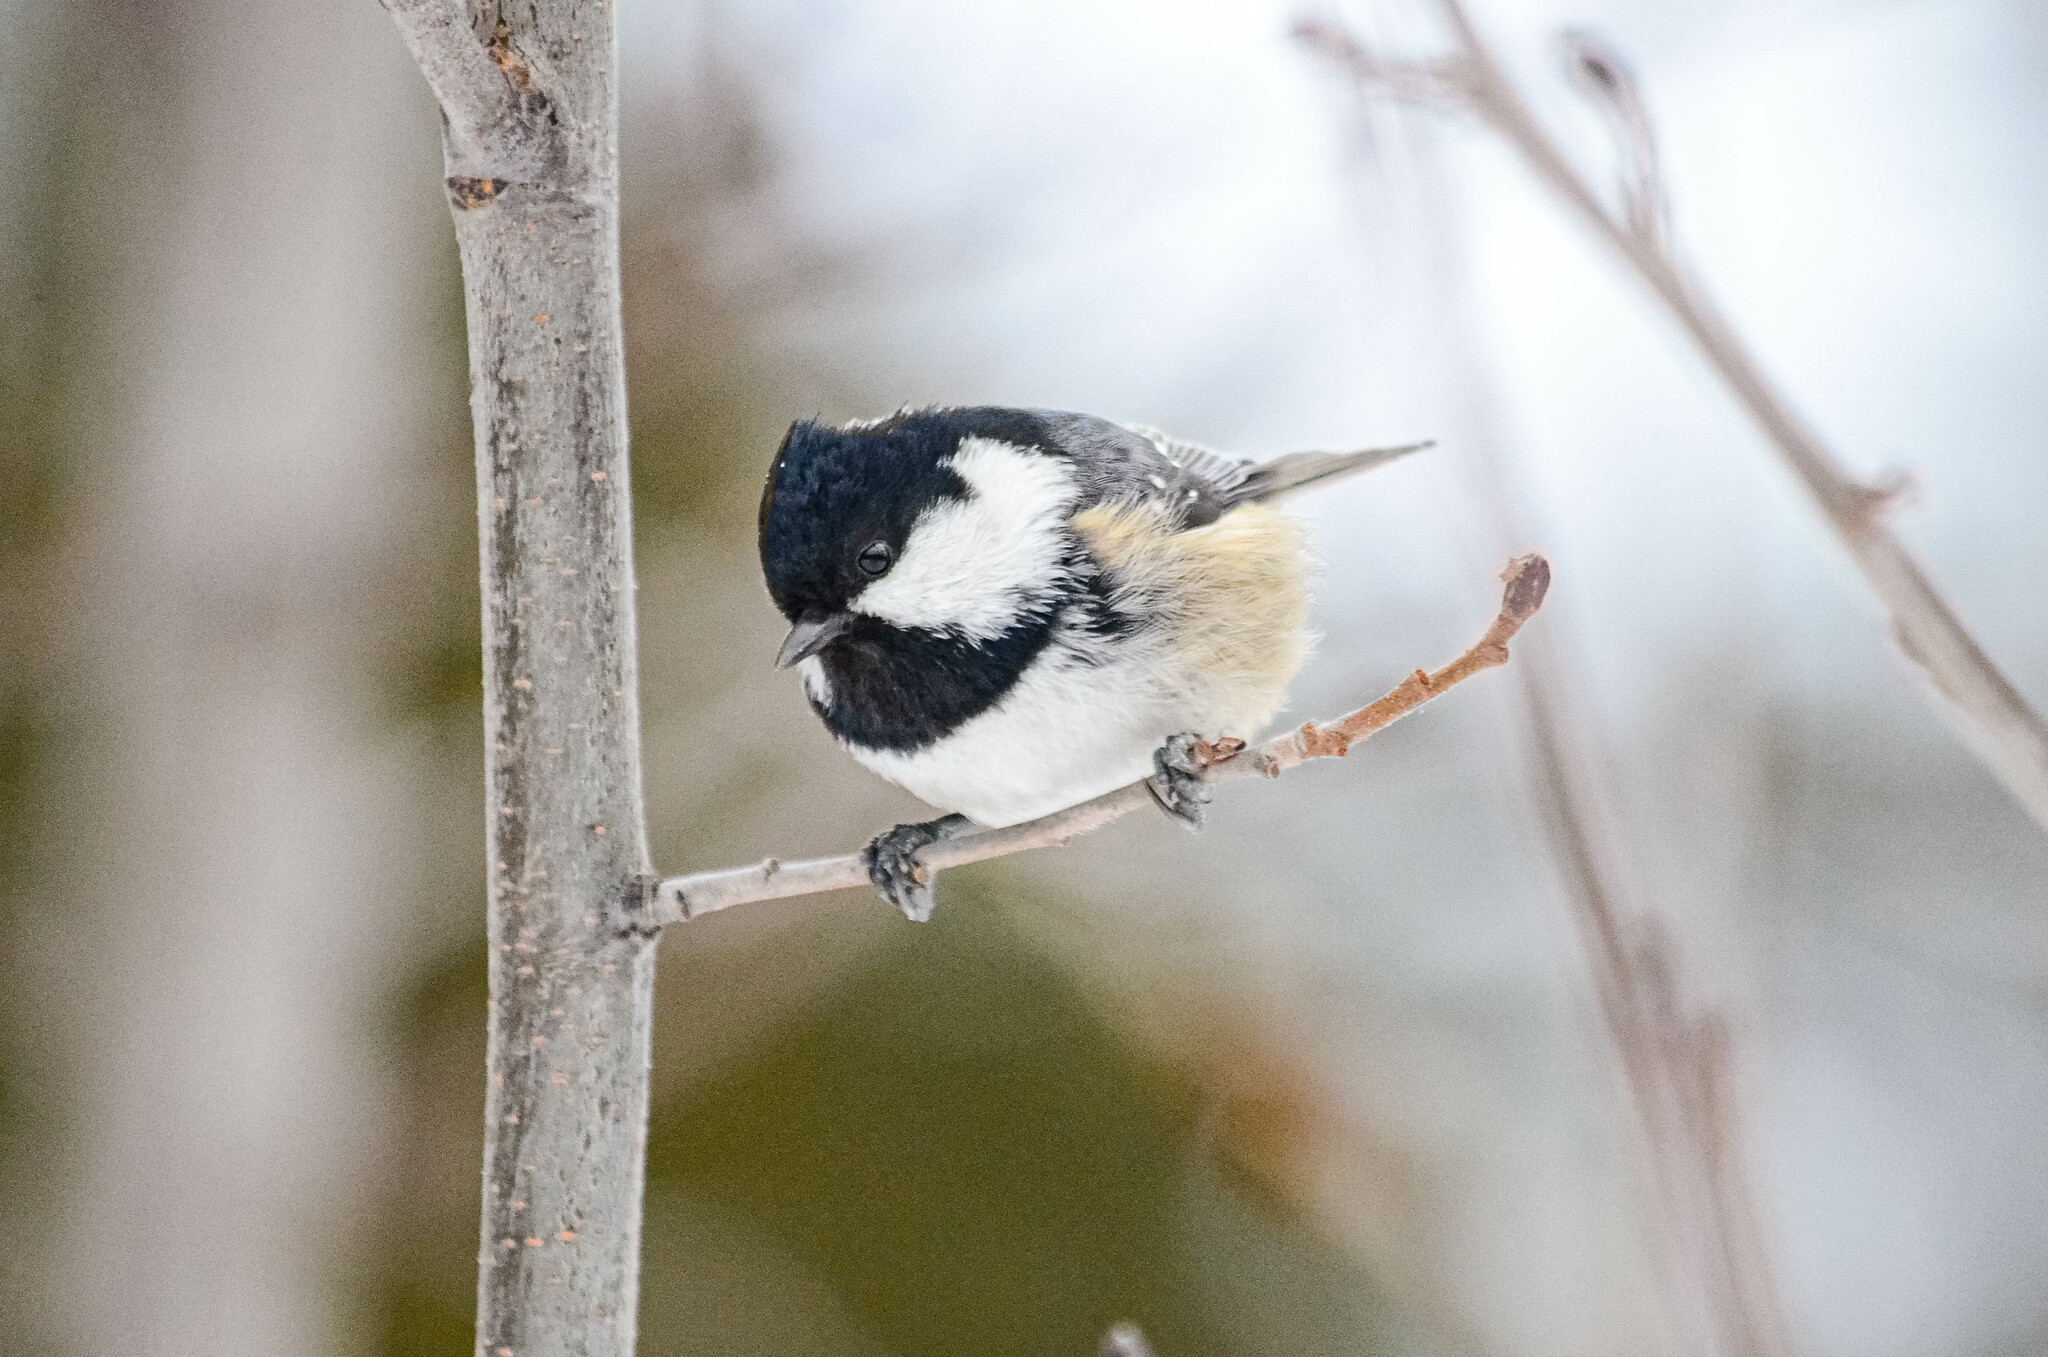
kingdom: Animalia
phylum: Chordata
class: Aves
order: Passeriformes
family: Paridae
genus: Periparus
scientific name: Periparus ater
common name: Coal tit
